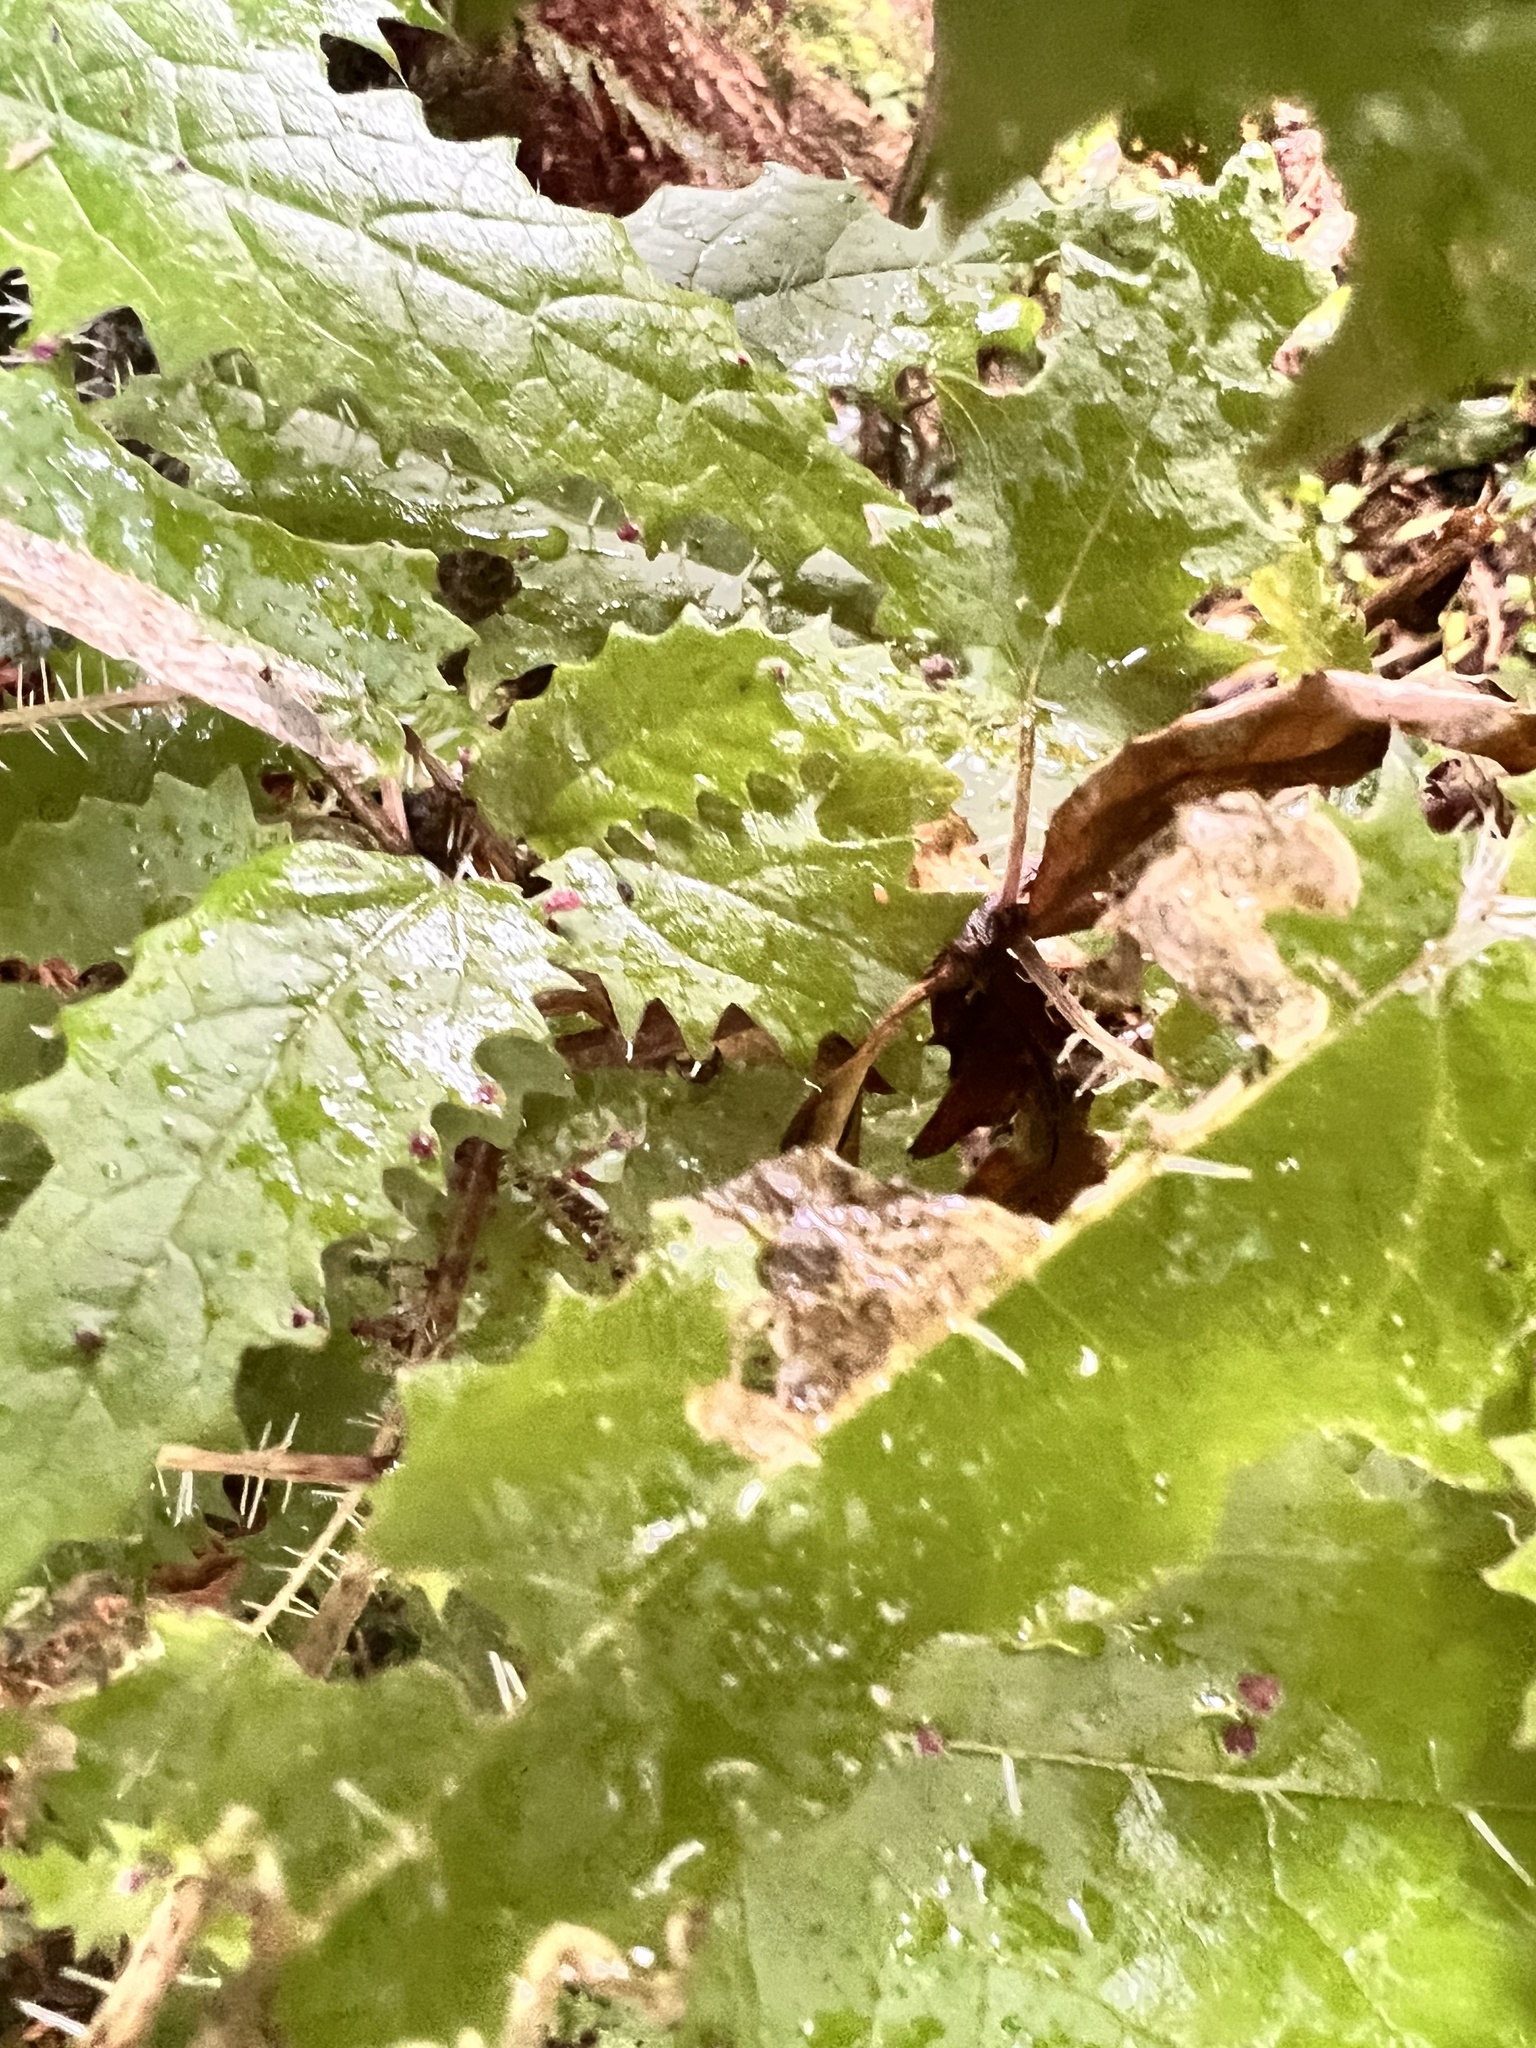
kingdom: Plantae
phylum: Tracheophyta
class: Magnoliopsida
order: Rosales
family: Urticaceae
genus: Urtica
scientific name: Urtica ferox
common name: Tree nettle
